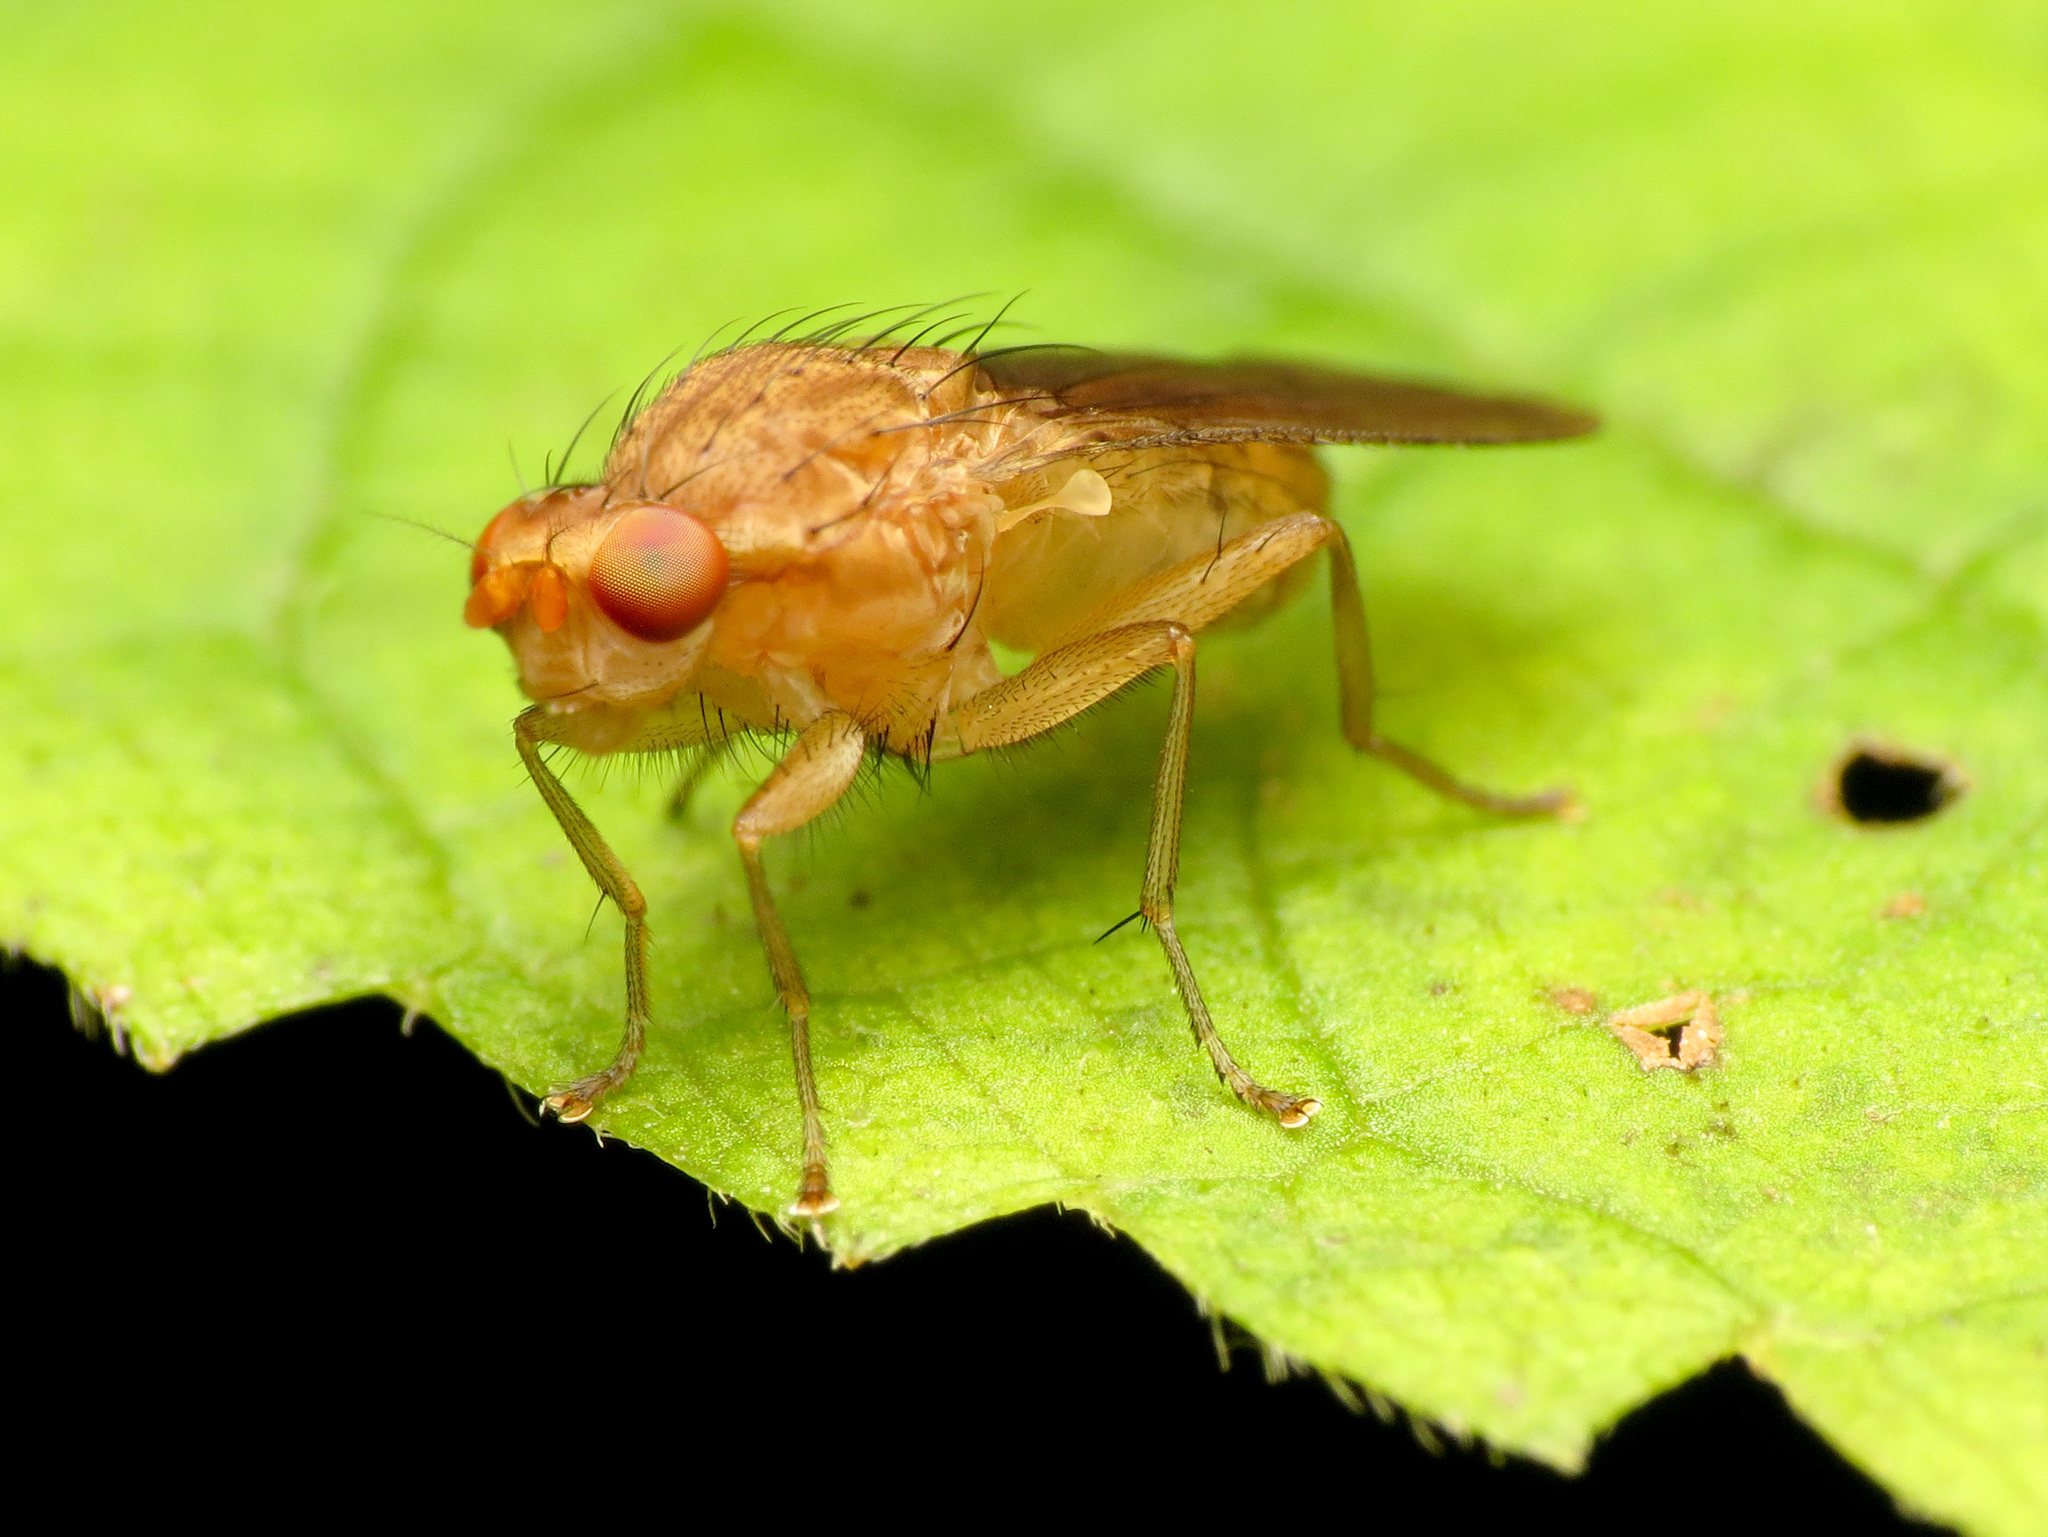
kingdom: Animalia
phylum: Arthropoda
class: Insecta
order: Diptera
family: Heleomyzidae
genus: Suillia
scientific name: Suillia plumata
